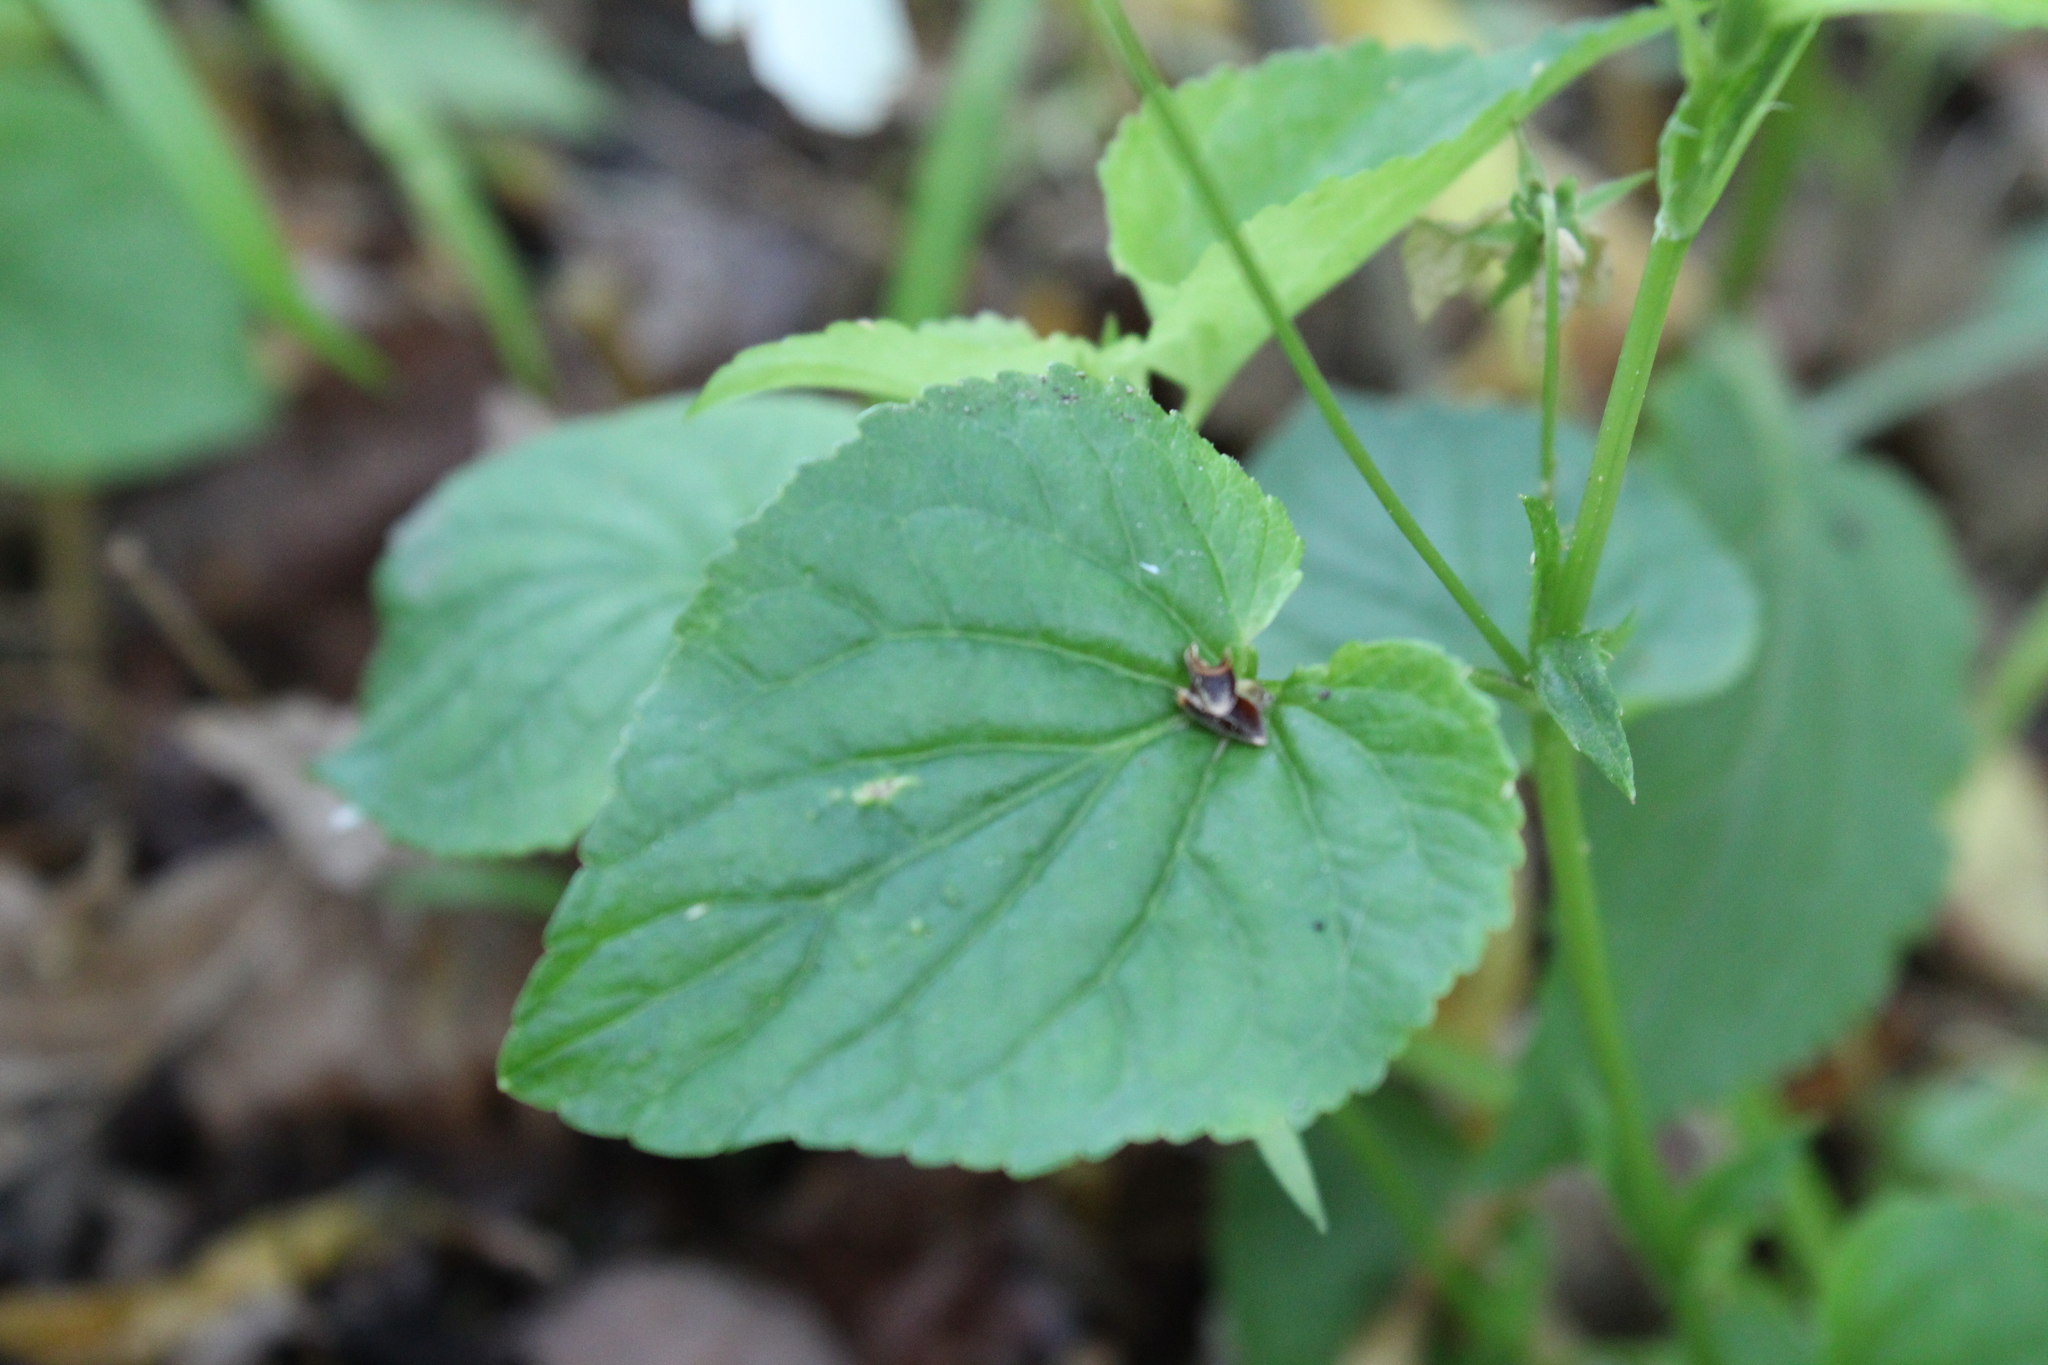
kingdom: Plantae
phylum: Tracheophyta
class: Magnoliopsida
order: Malpighiales
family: Violaceae
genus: Viola
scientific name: Viola striata
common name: Cream violet
